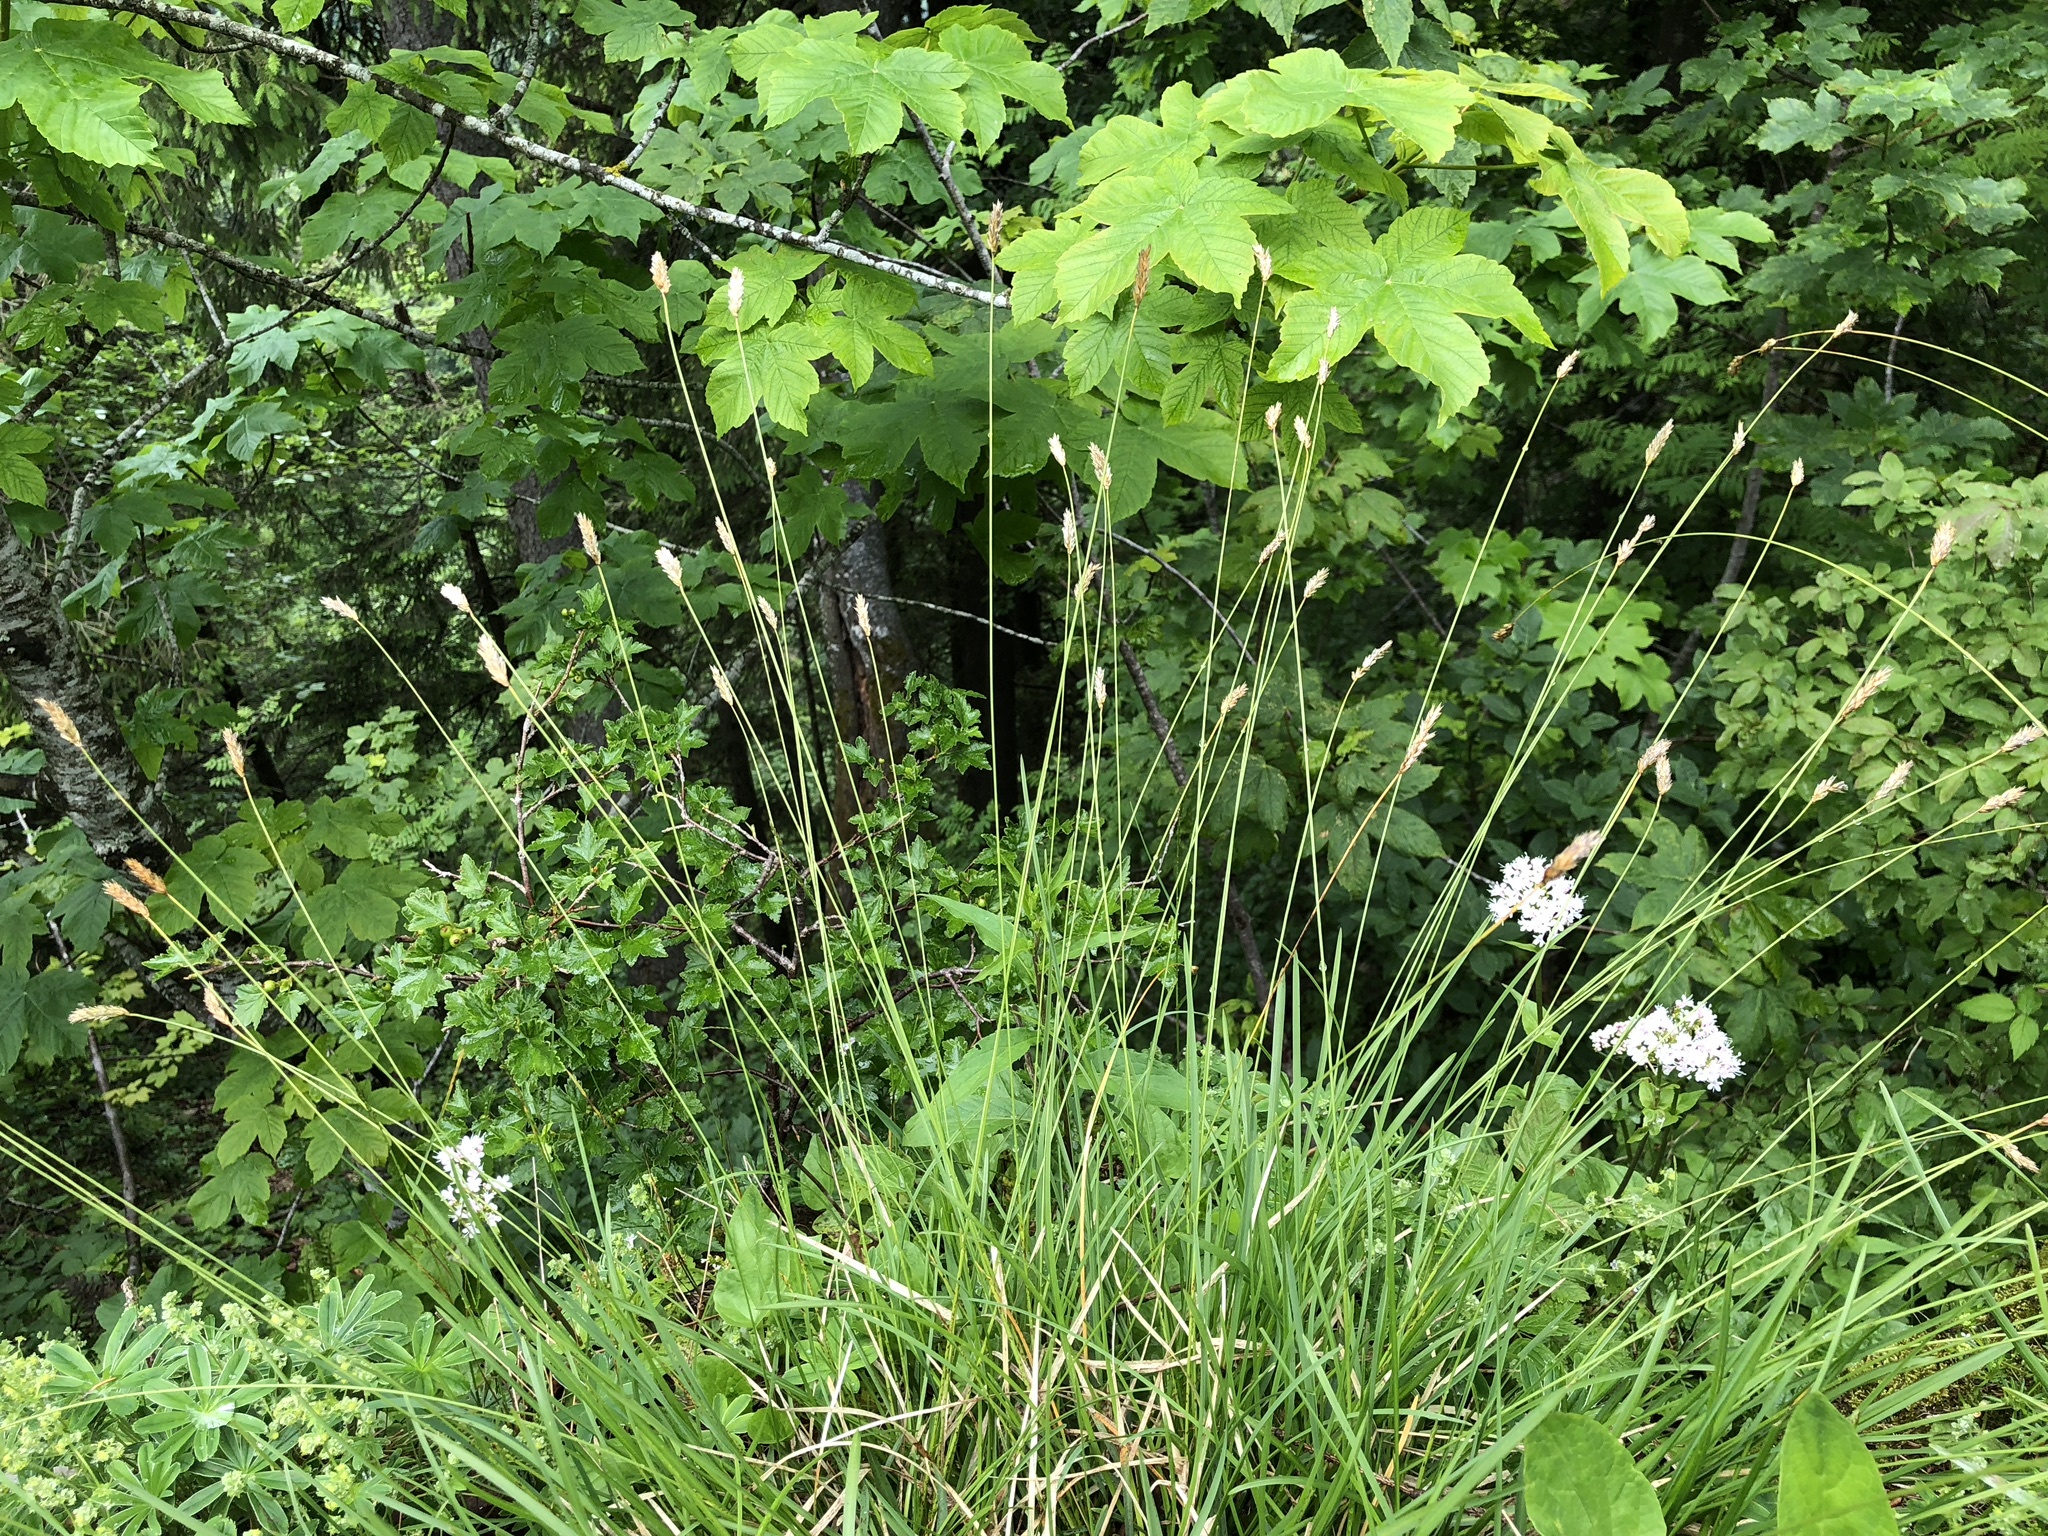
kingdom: Plantae
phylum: Tracheophyta
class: Liliopsida
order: Poales
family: Poaceae
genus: Sesleria
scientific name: Sesleria caerulea
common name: Blue moor-grass
